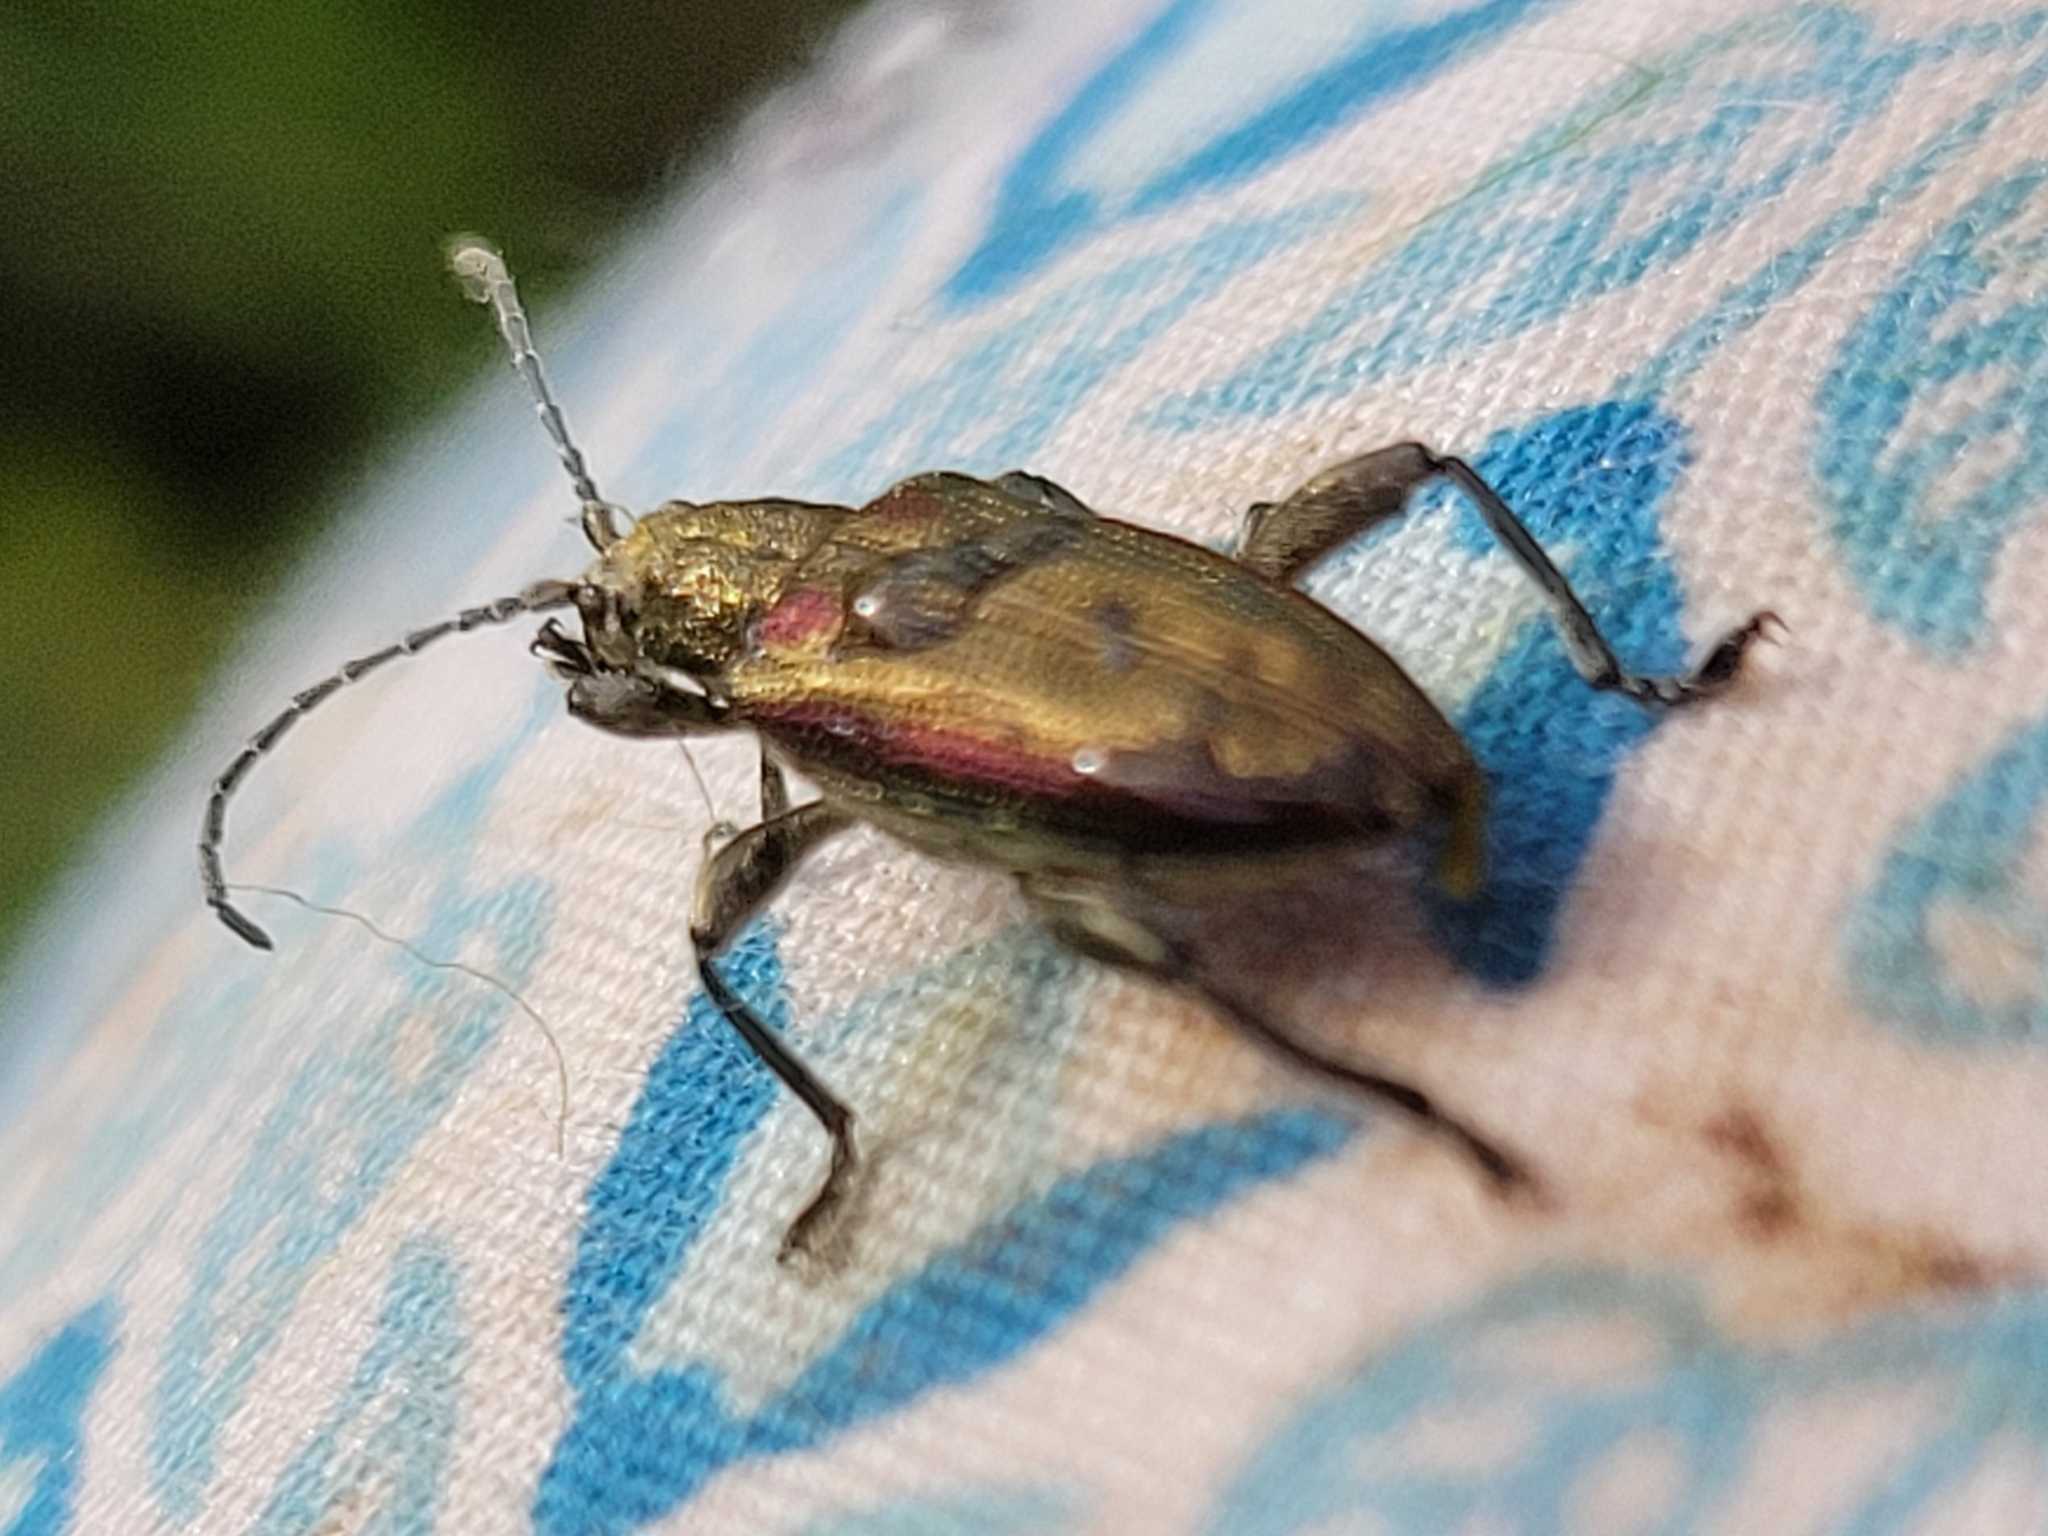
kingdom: Animalia
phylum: Arthropoda
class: Insecta
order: Coleoptera
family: Chrysomelidae
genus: Donacia
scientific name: Donacia marginata
